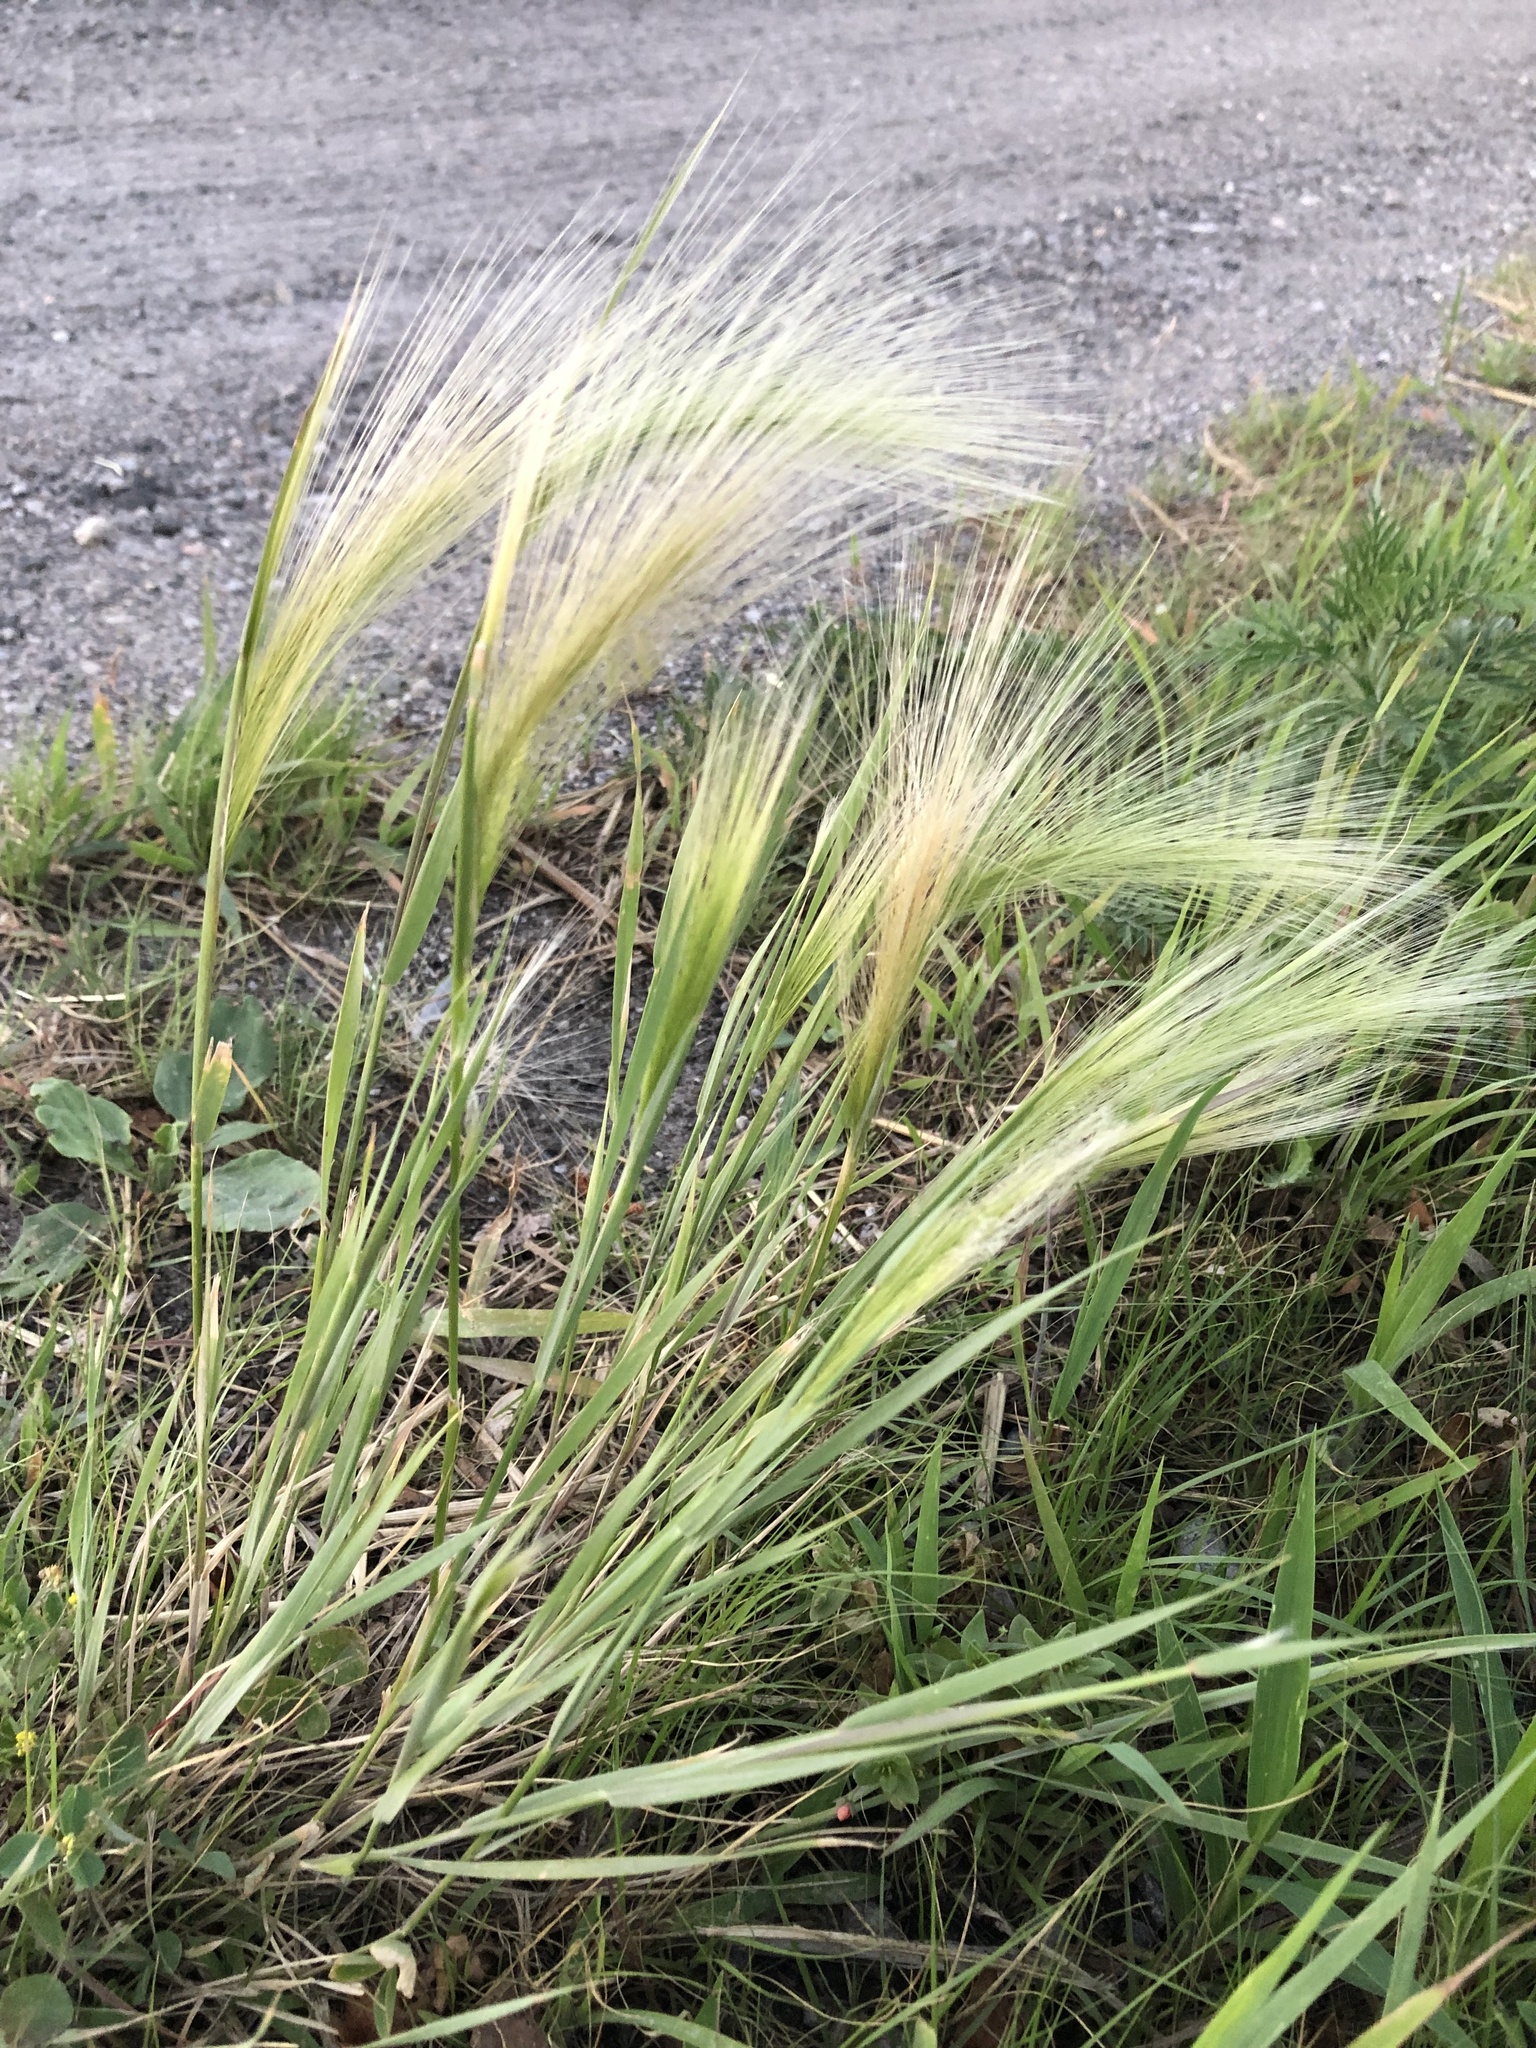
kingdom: Plantae
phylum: Tracheophyta
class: Liliopsida
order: Poales
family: Poaceae
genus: Hordeum
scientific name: Hordeum jubatum
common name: Foxtail barley
